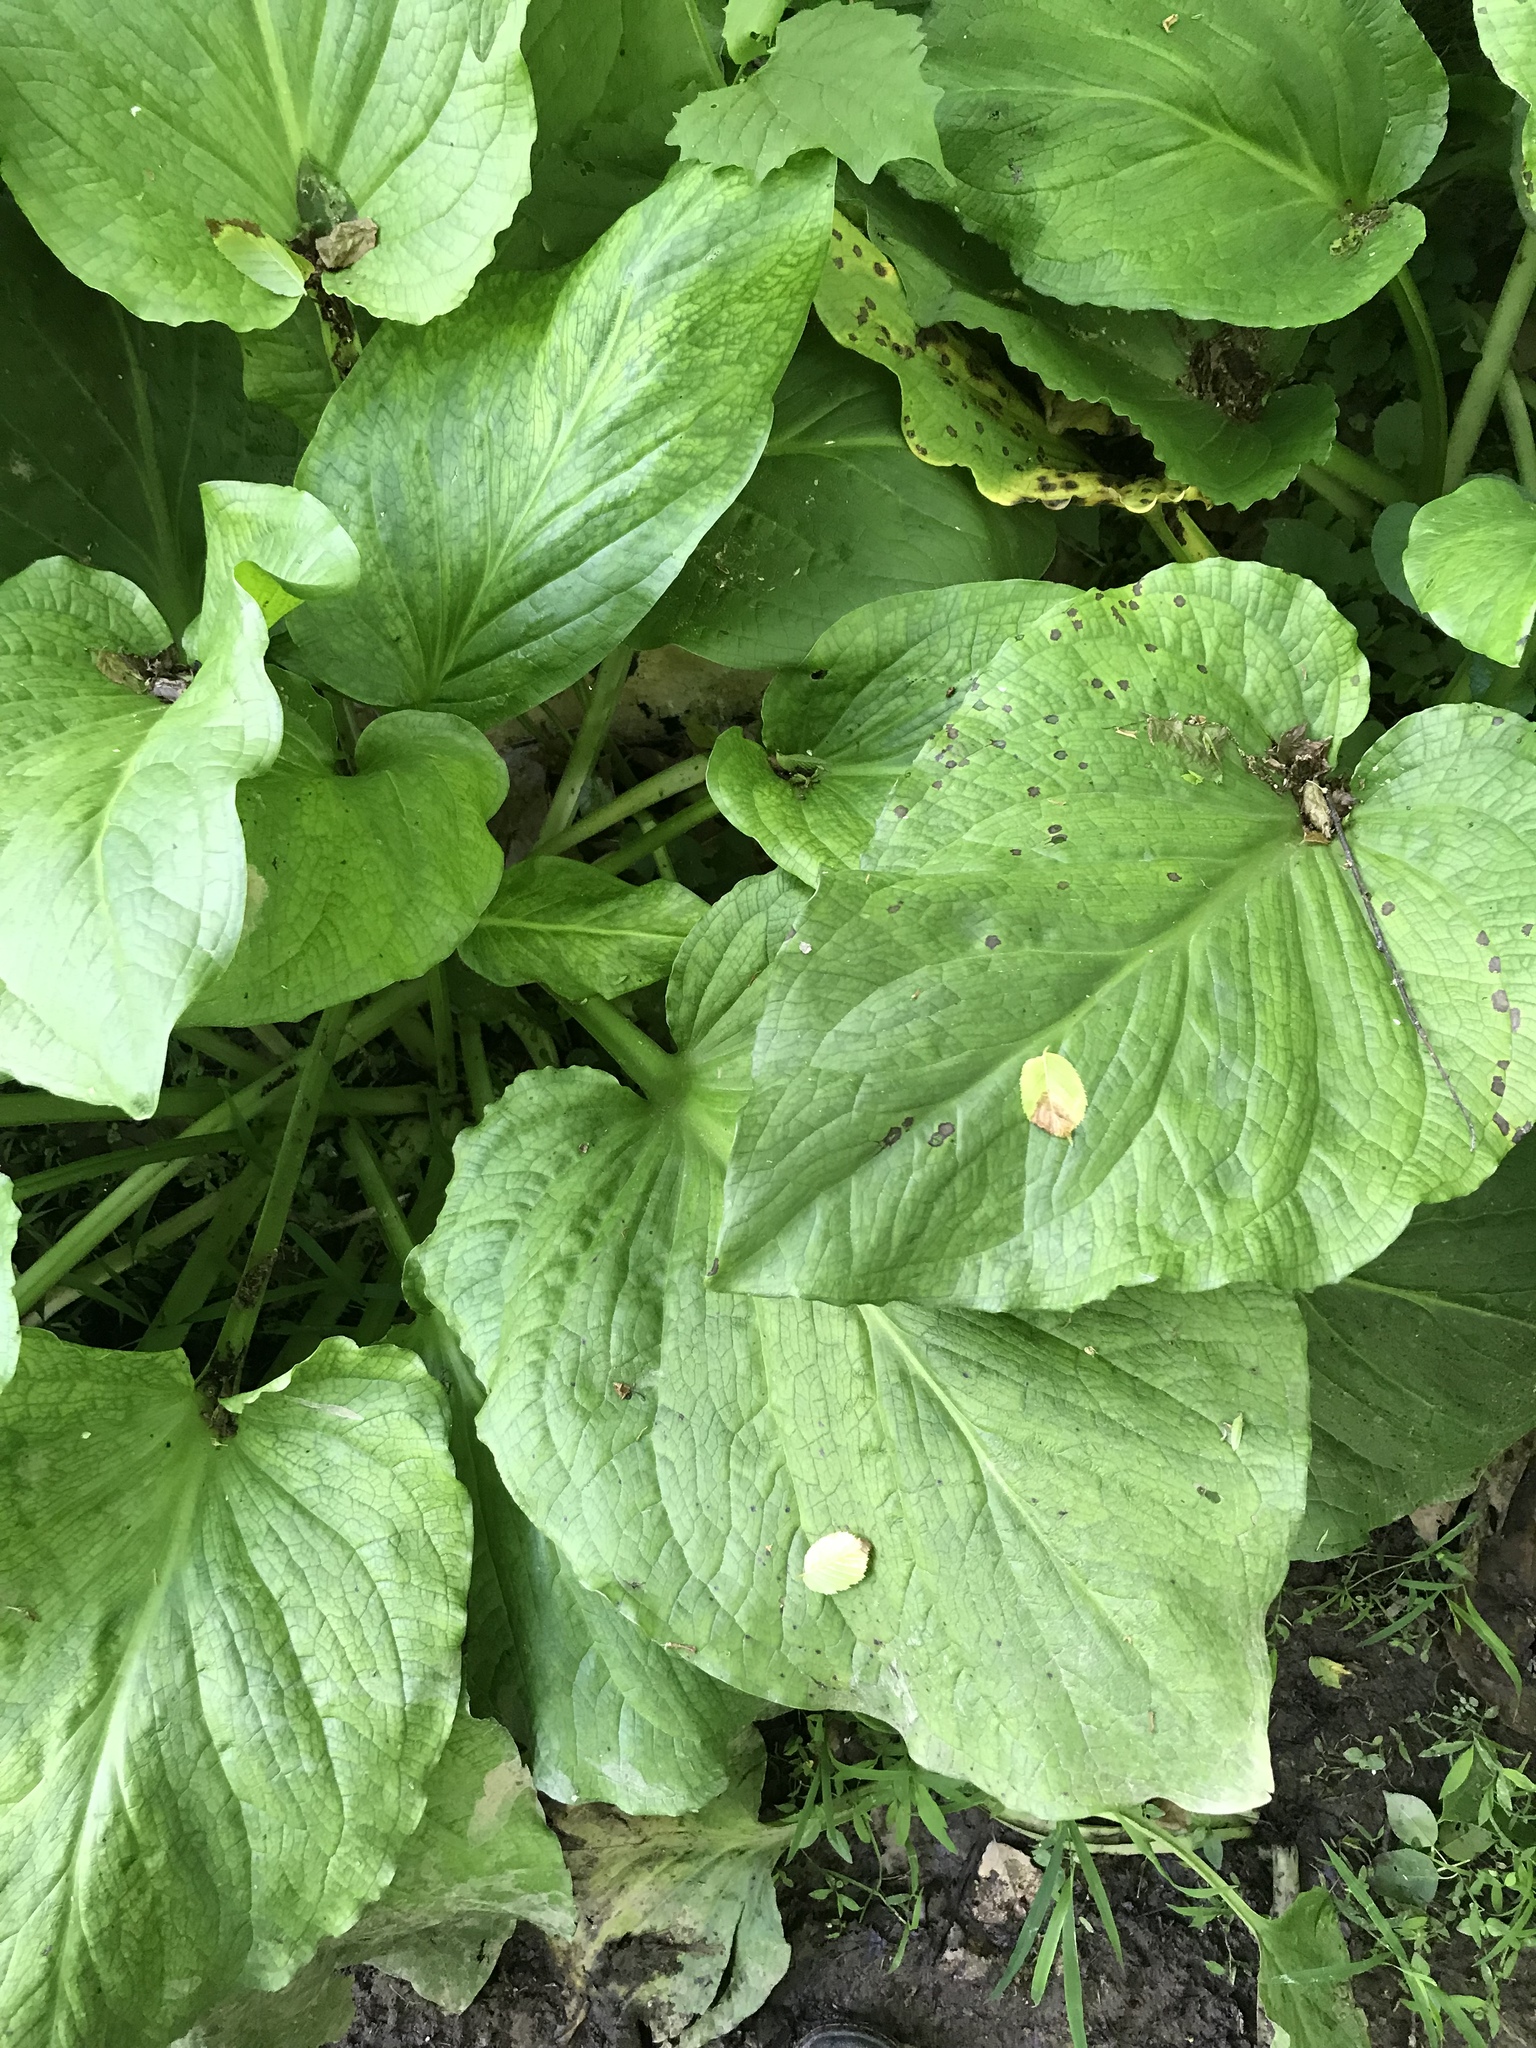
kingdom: Plantae
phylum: Tracheophyta
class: Liliopsida
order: Alismatales
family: Araceae
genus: Symplocarpus
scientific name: Symplocarpus foetidus
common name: Eastern skunk cabbage
